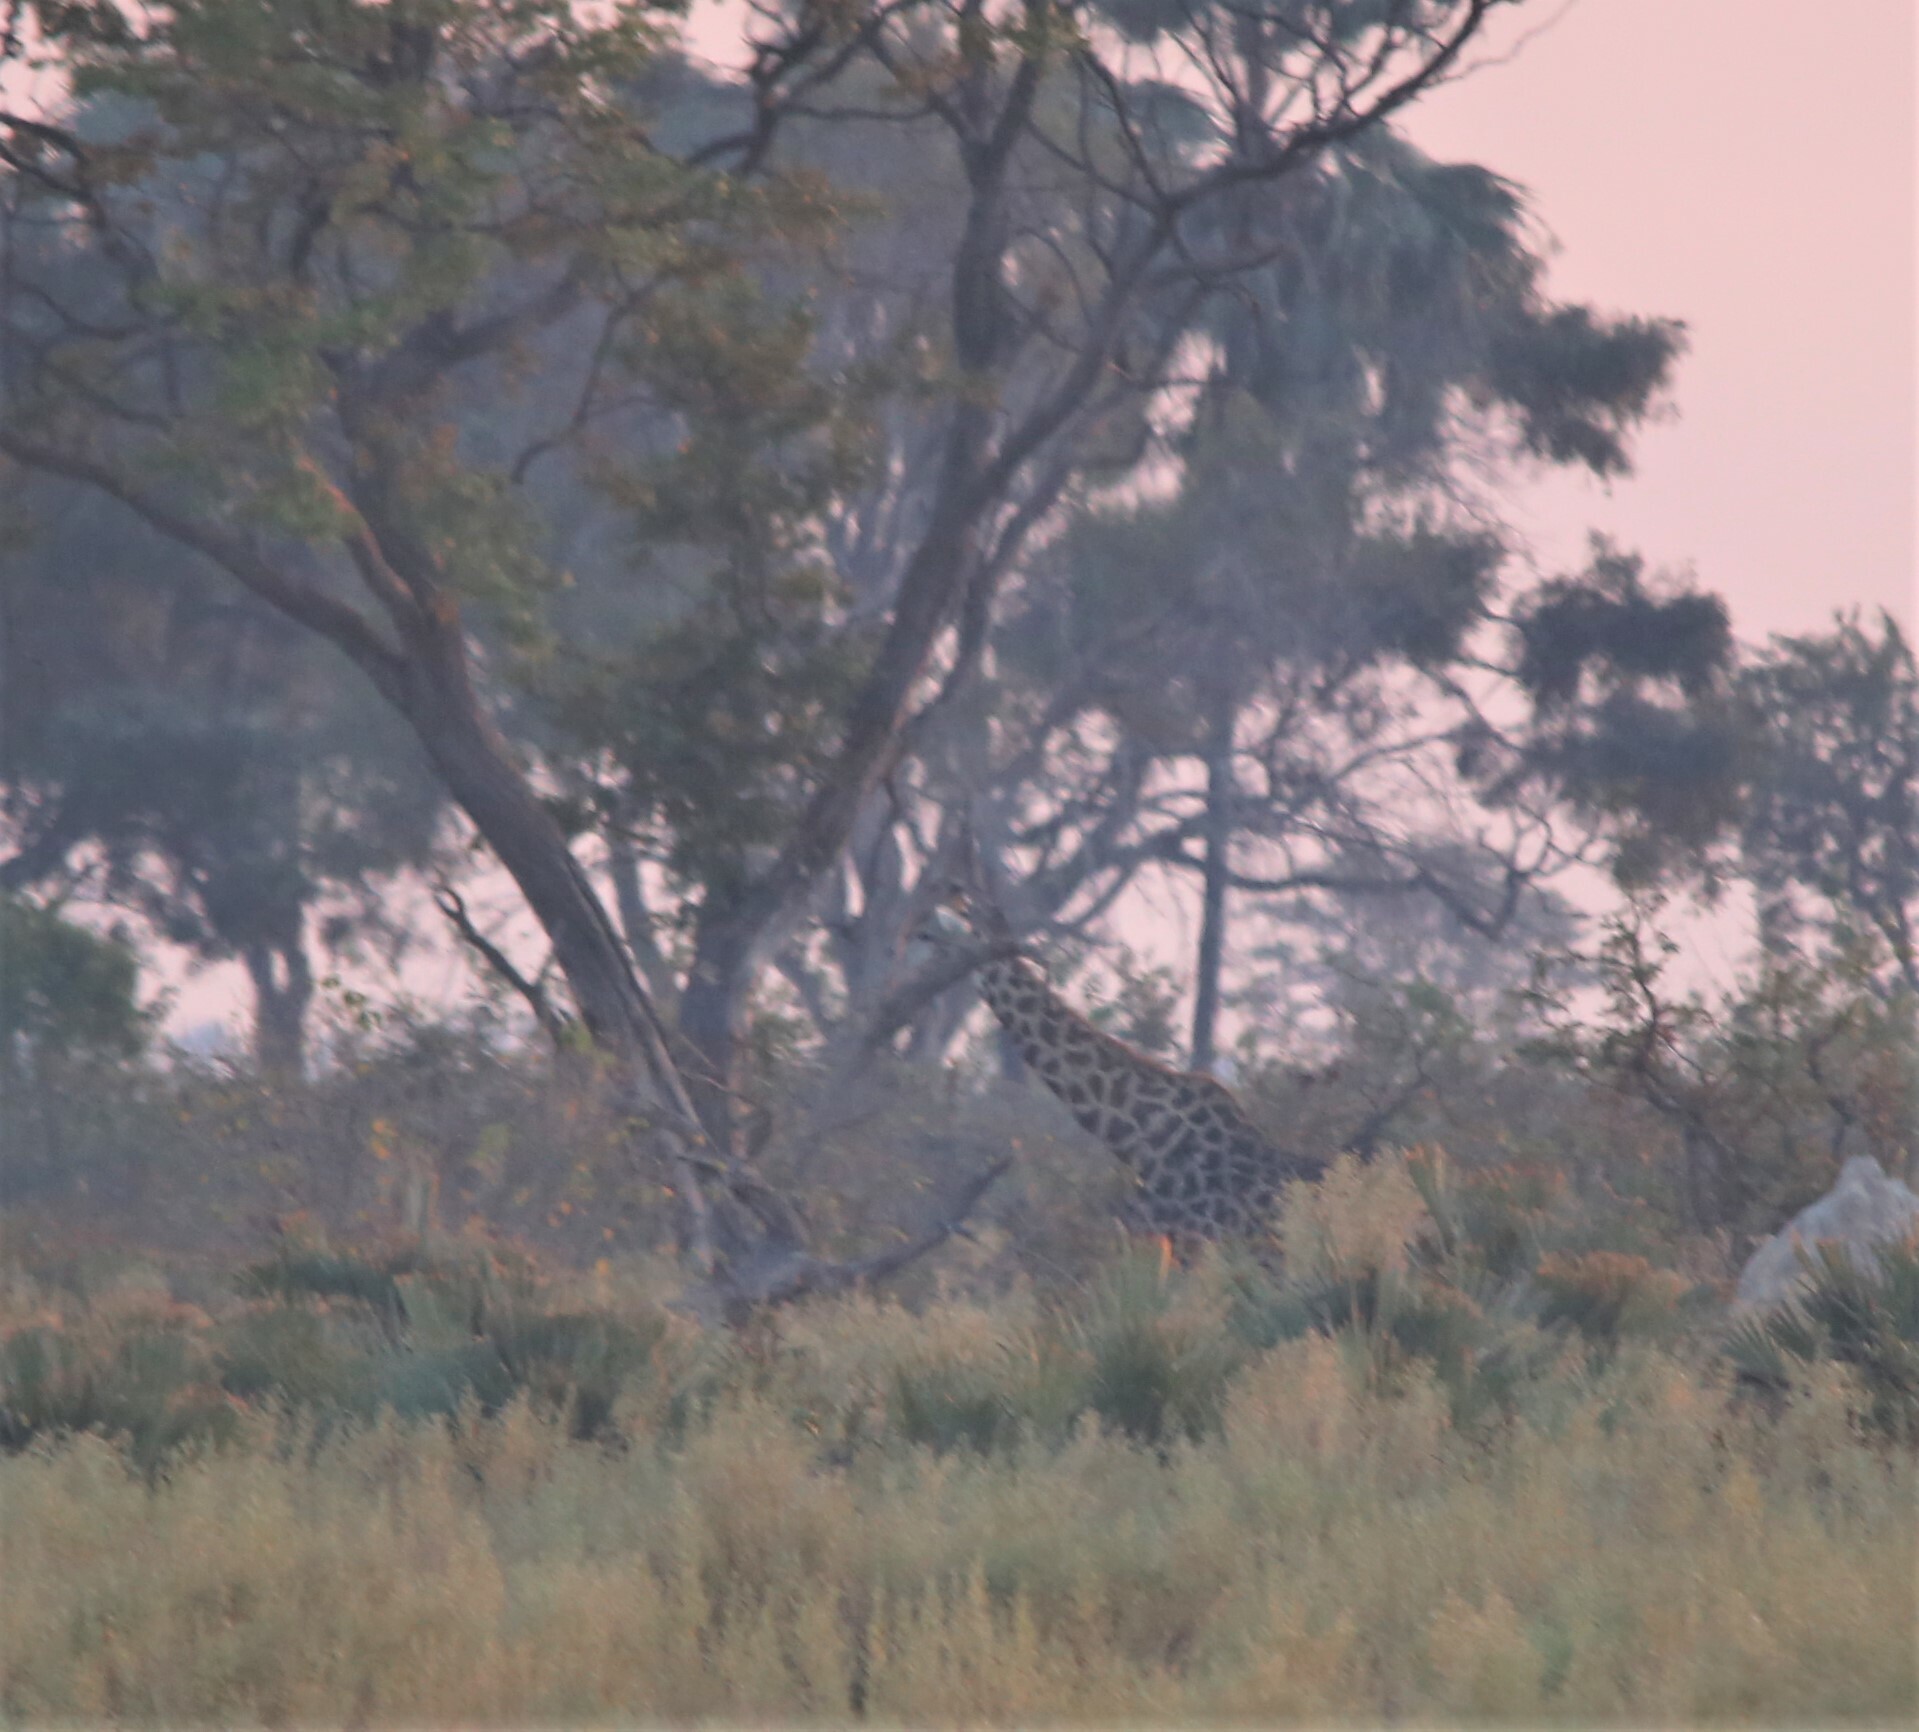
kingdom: Animalia
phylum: Chordata
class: Mammalia
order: Artiodactyla
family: Giraffidae
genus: Giraffa
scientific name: Giraffa giraffa
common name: Southern giraffe
